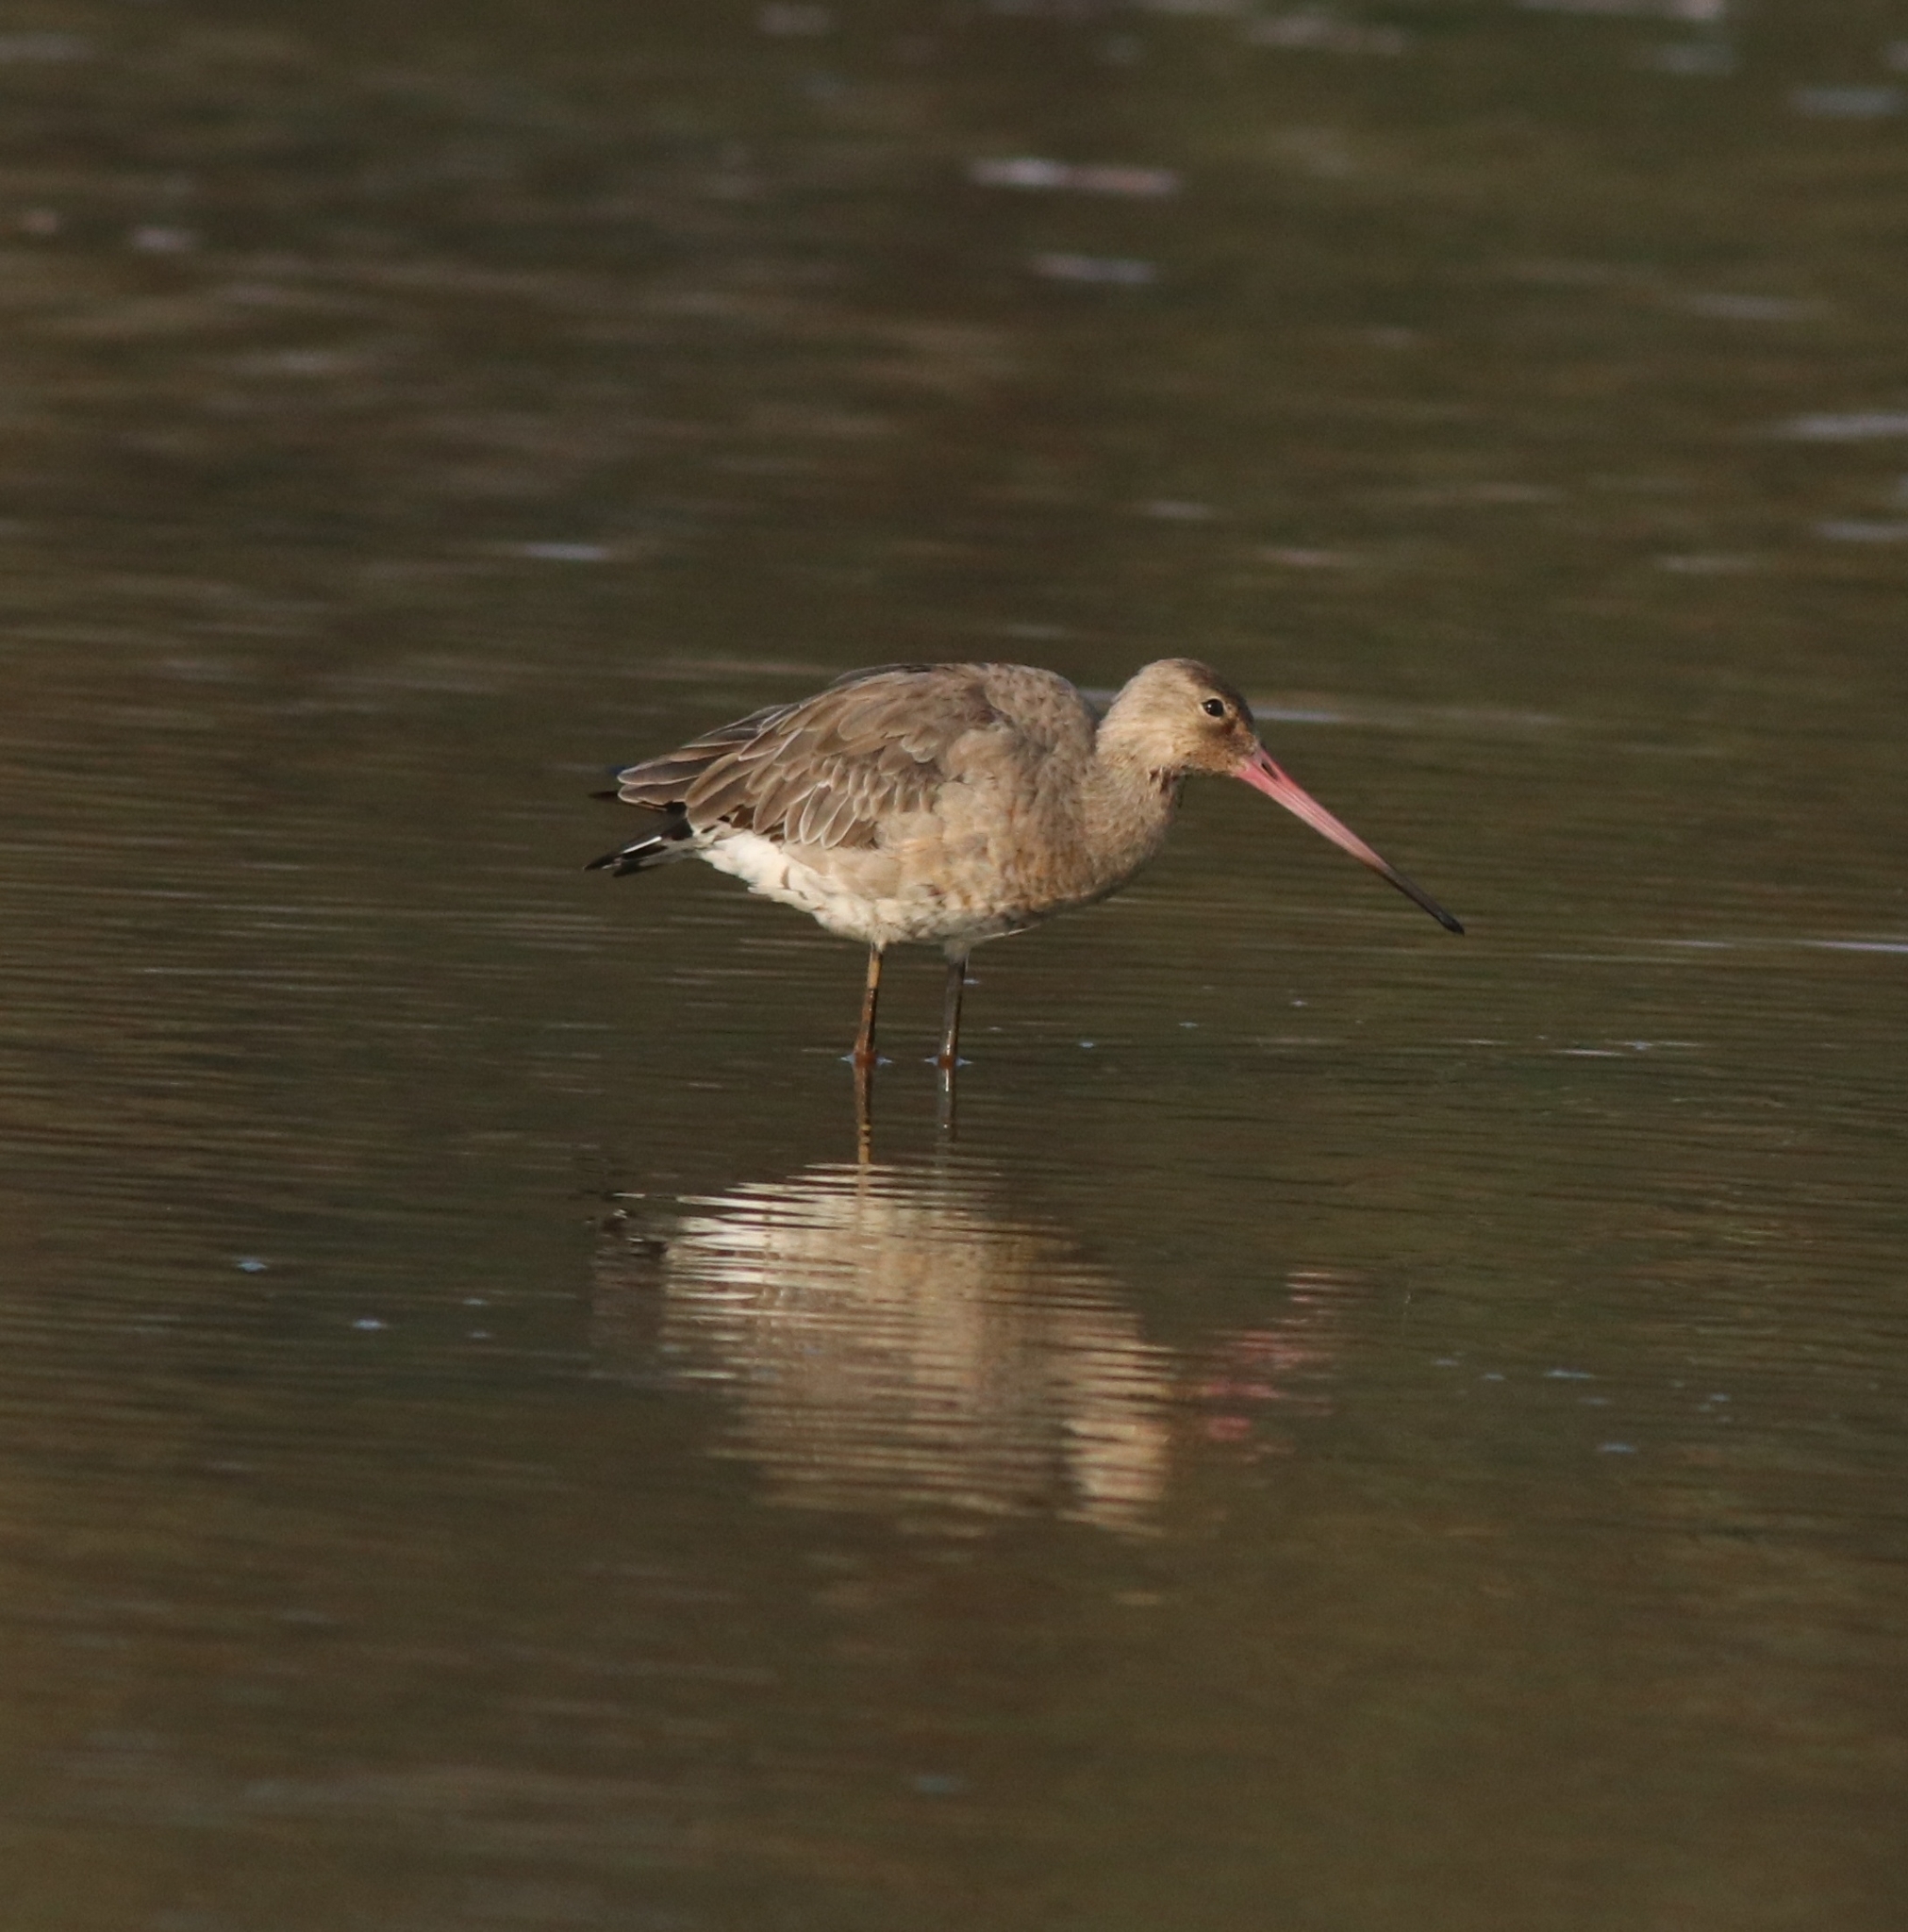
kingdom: Animalia
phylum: Chordata
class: Aves
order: Charadriiformes
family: Scolopacidae
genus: Limosa
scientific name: Limosa limosa
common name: Black-tailed godwit
